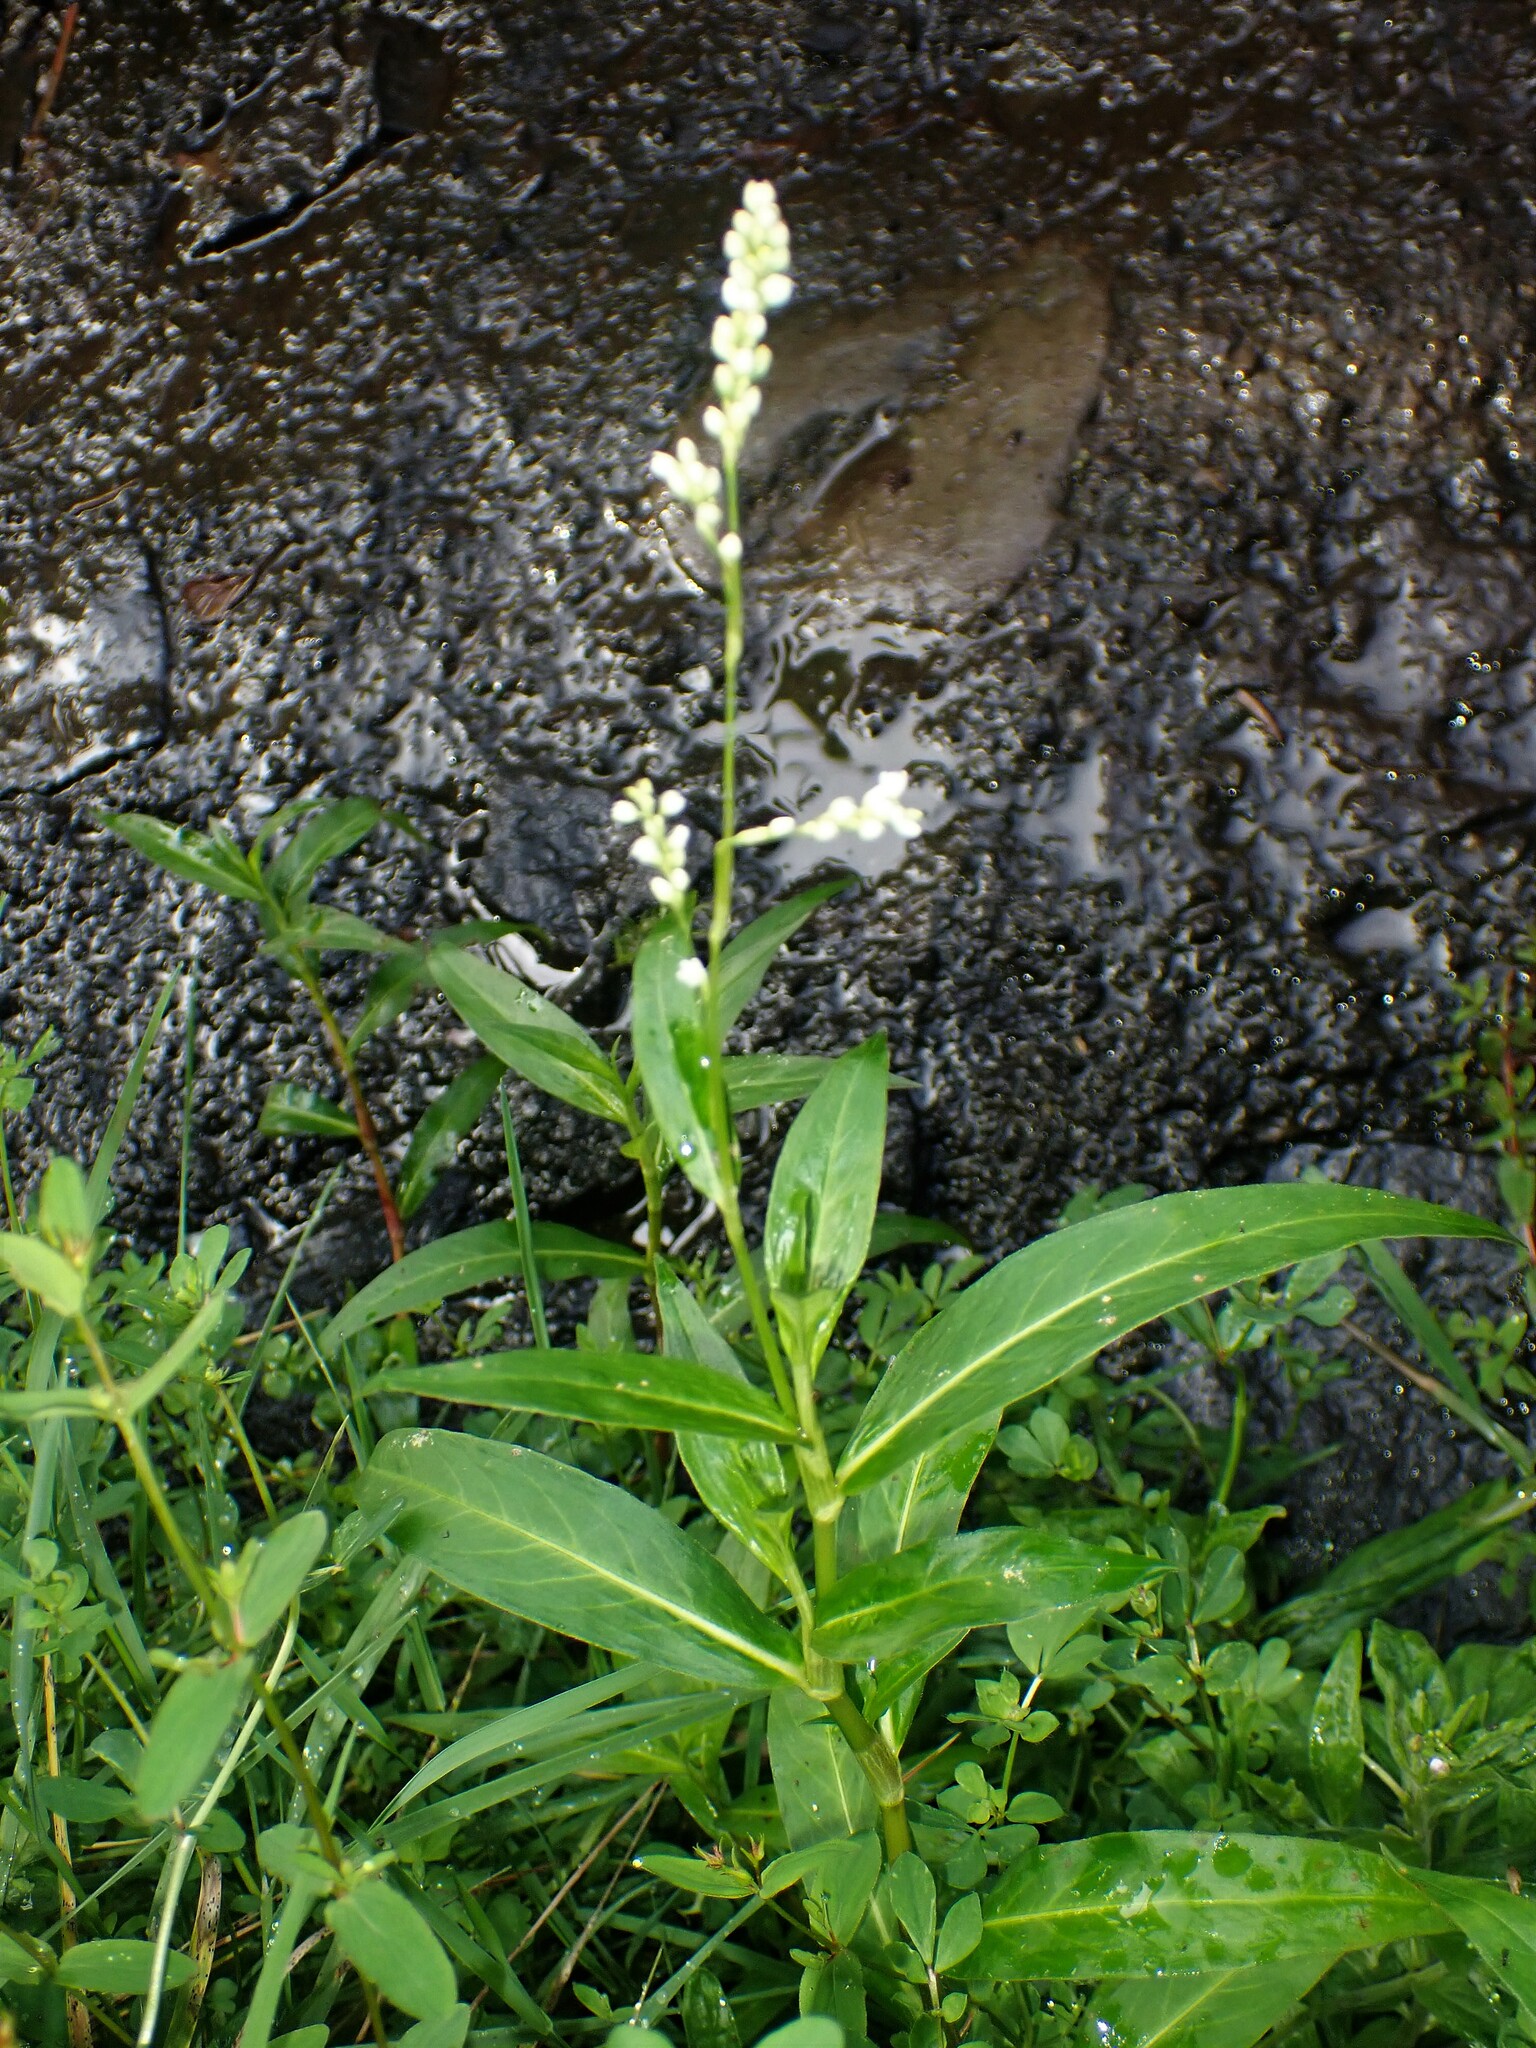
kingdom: Plantae
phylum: Tracheophyta
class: Magnoliopsida
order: Caryophyllales
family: Polygonaceae
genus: Persicaria
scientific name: Persicaria hydropiperoides
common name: Swamp smartweed
